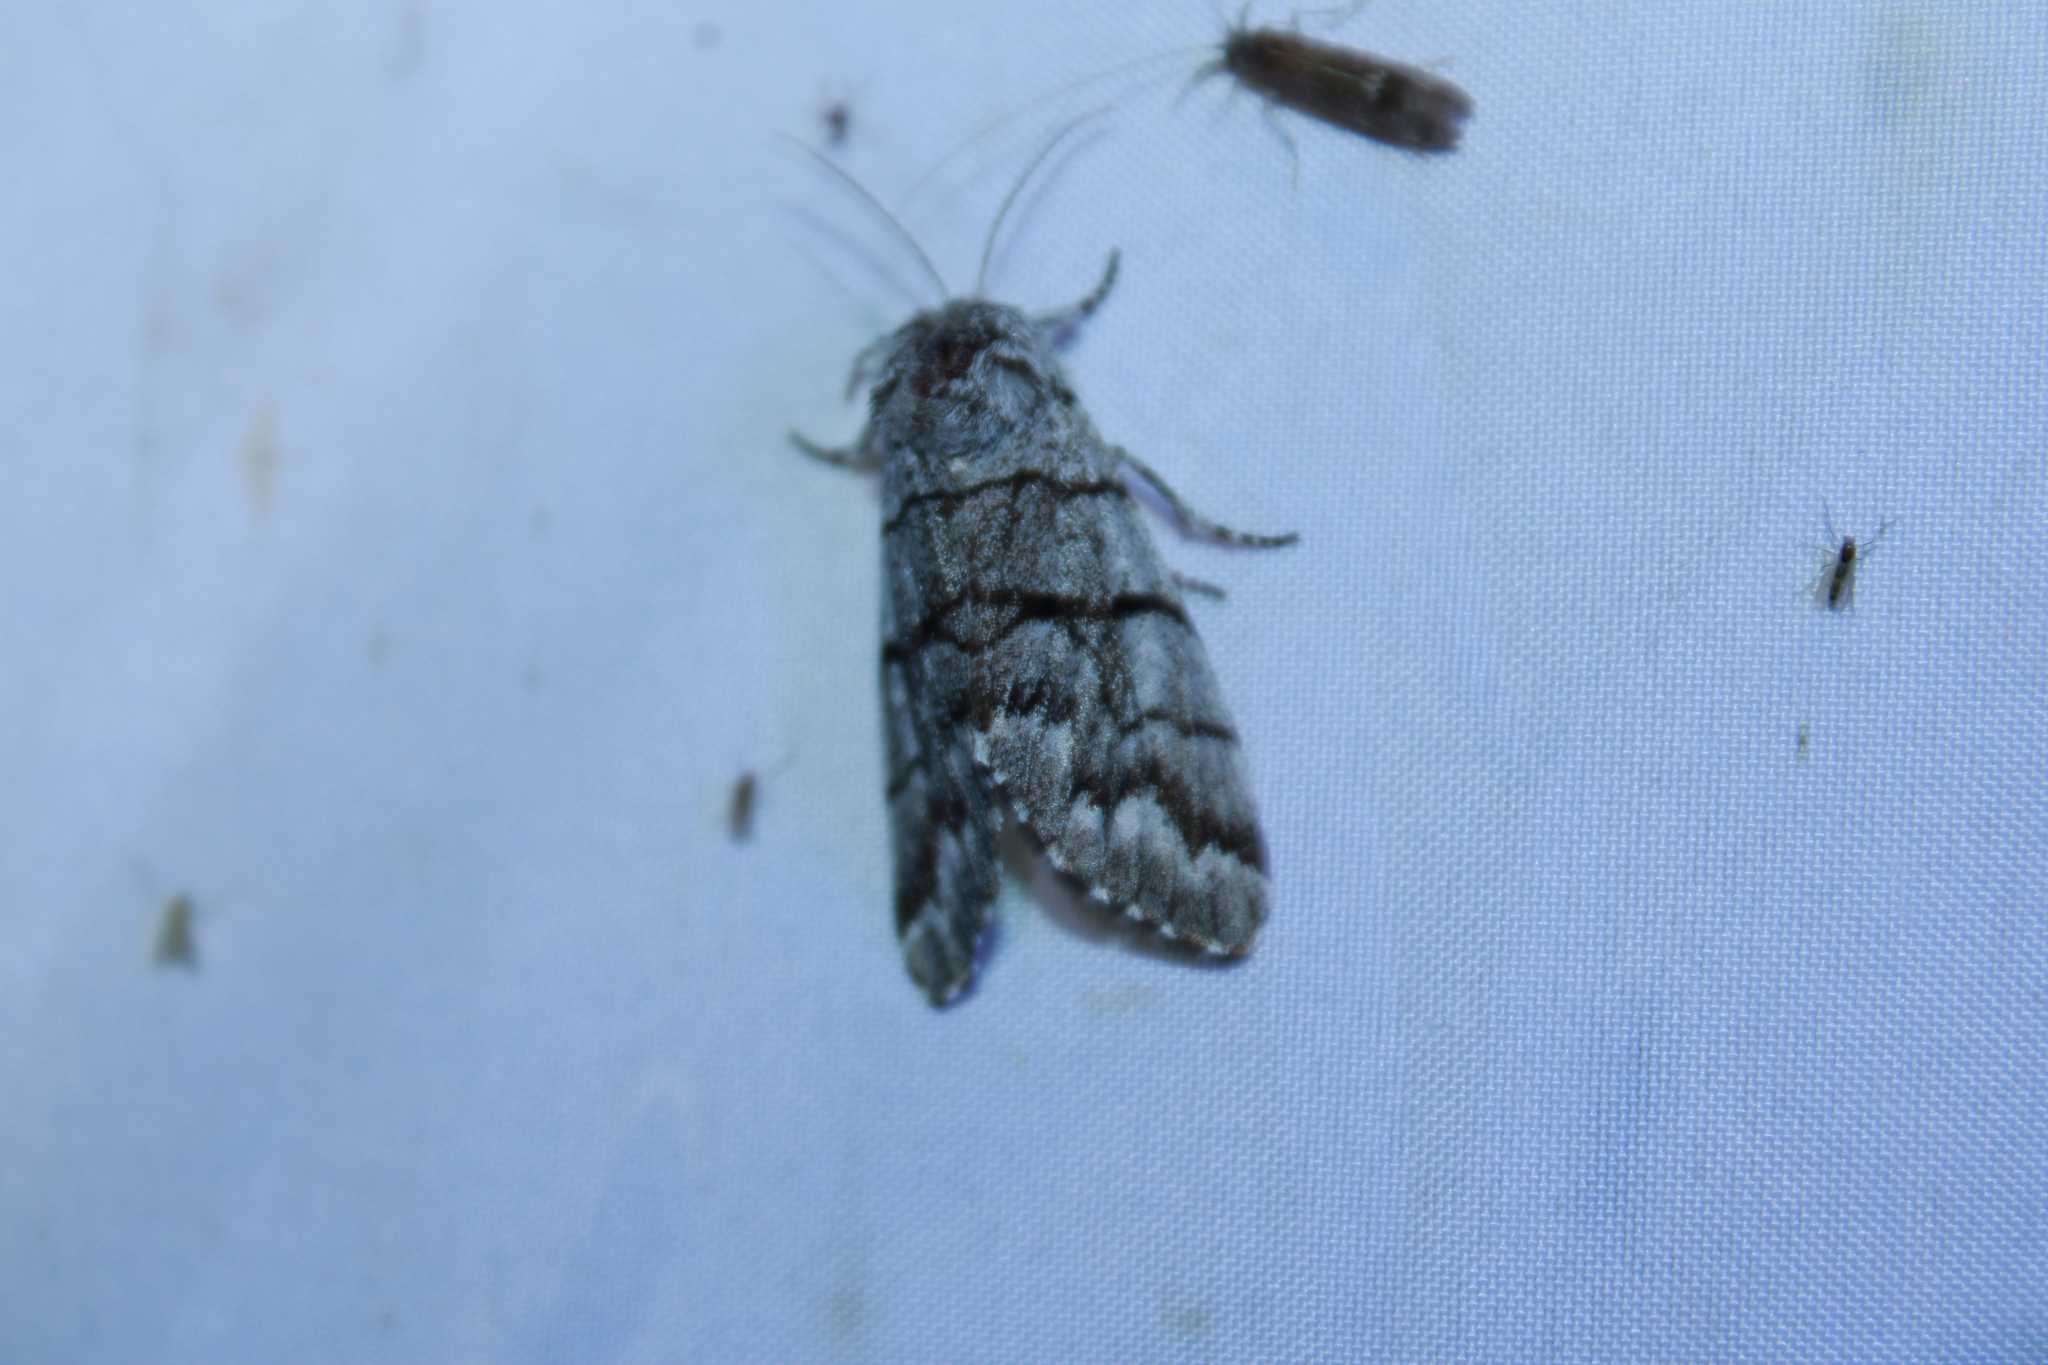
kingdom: Animalia
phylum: Arthropoda
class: Insecta
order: Lepidoptera
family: Noctuidae
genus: Panthea
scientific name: Panthea furcilla
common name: Eastern panthea moth
